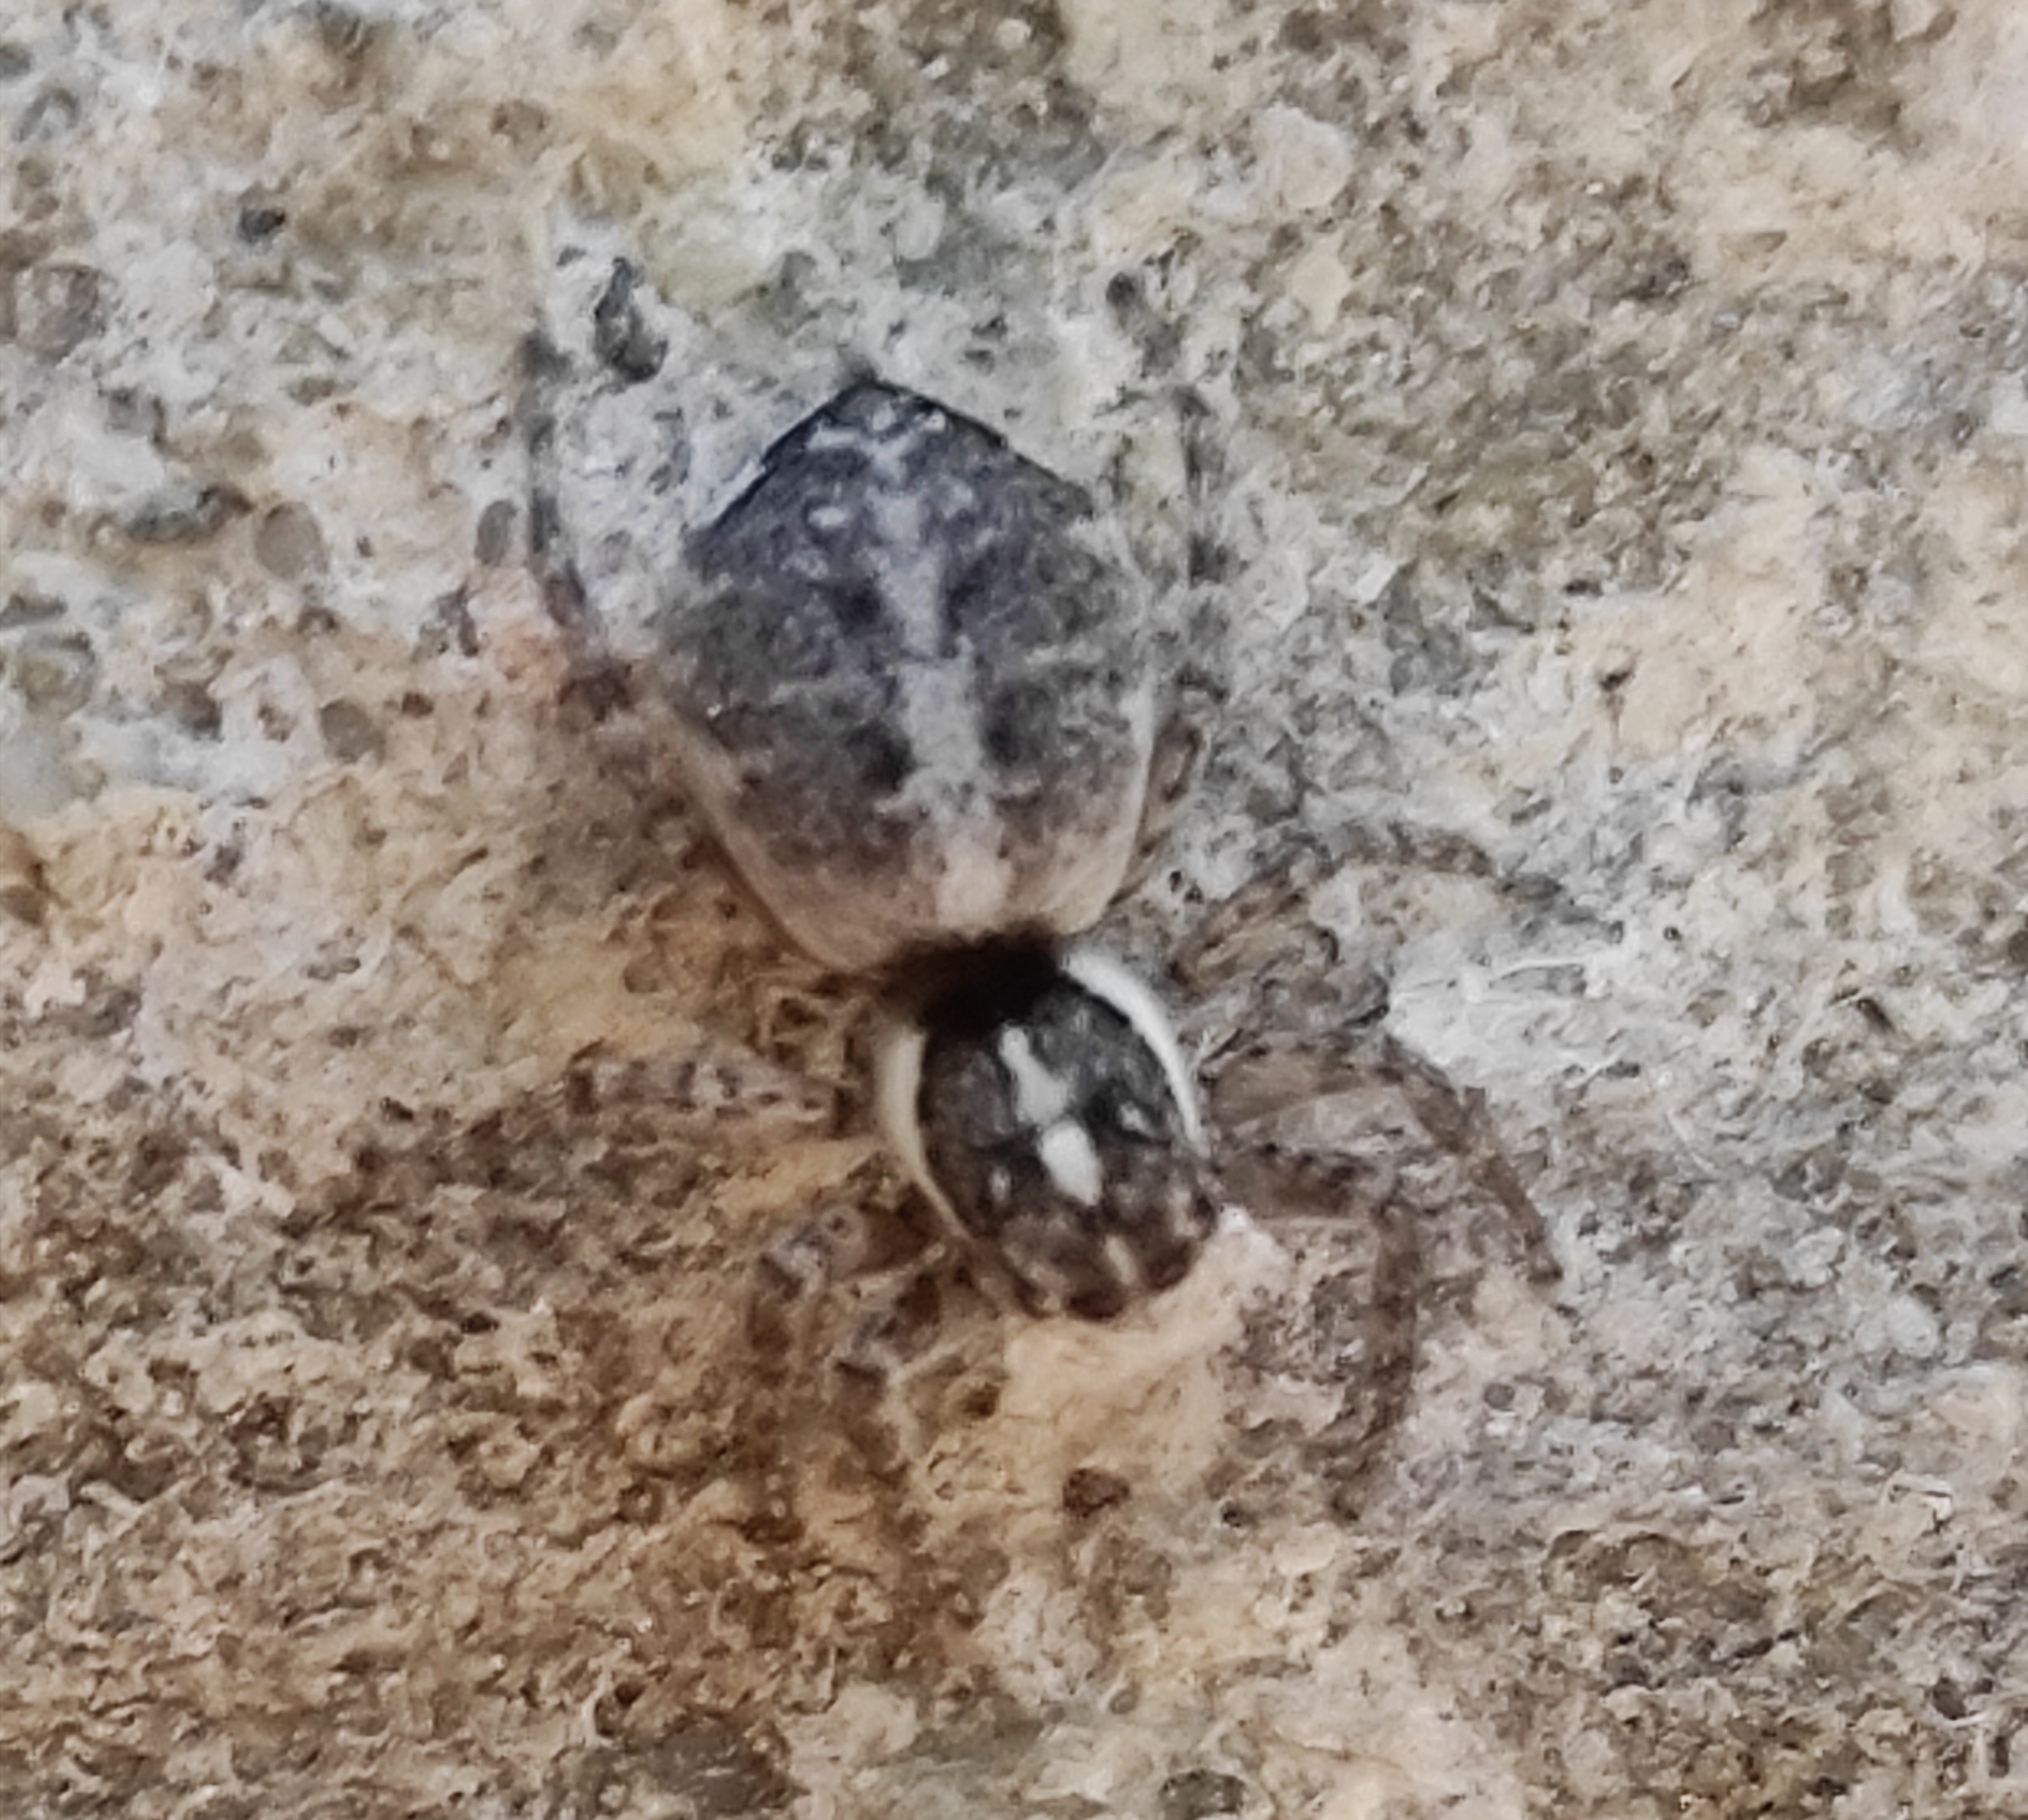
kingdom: Animalia
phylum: Arthropoda
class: Arachnida
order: Araneae
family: Salticidae
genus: Menemerus
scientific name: Menemerus semilimbatus
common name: Jumping spider
